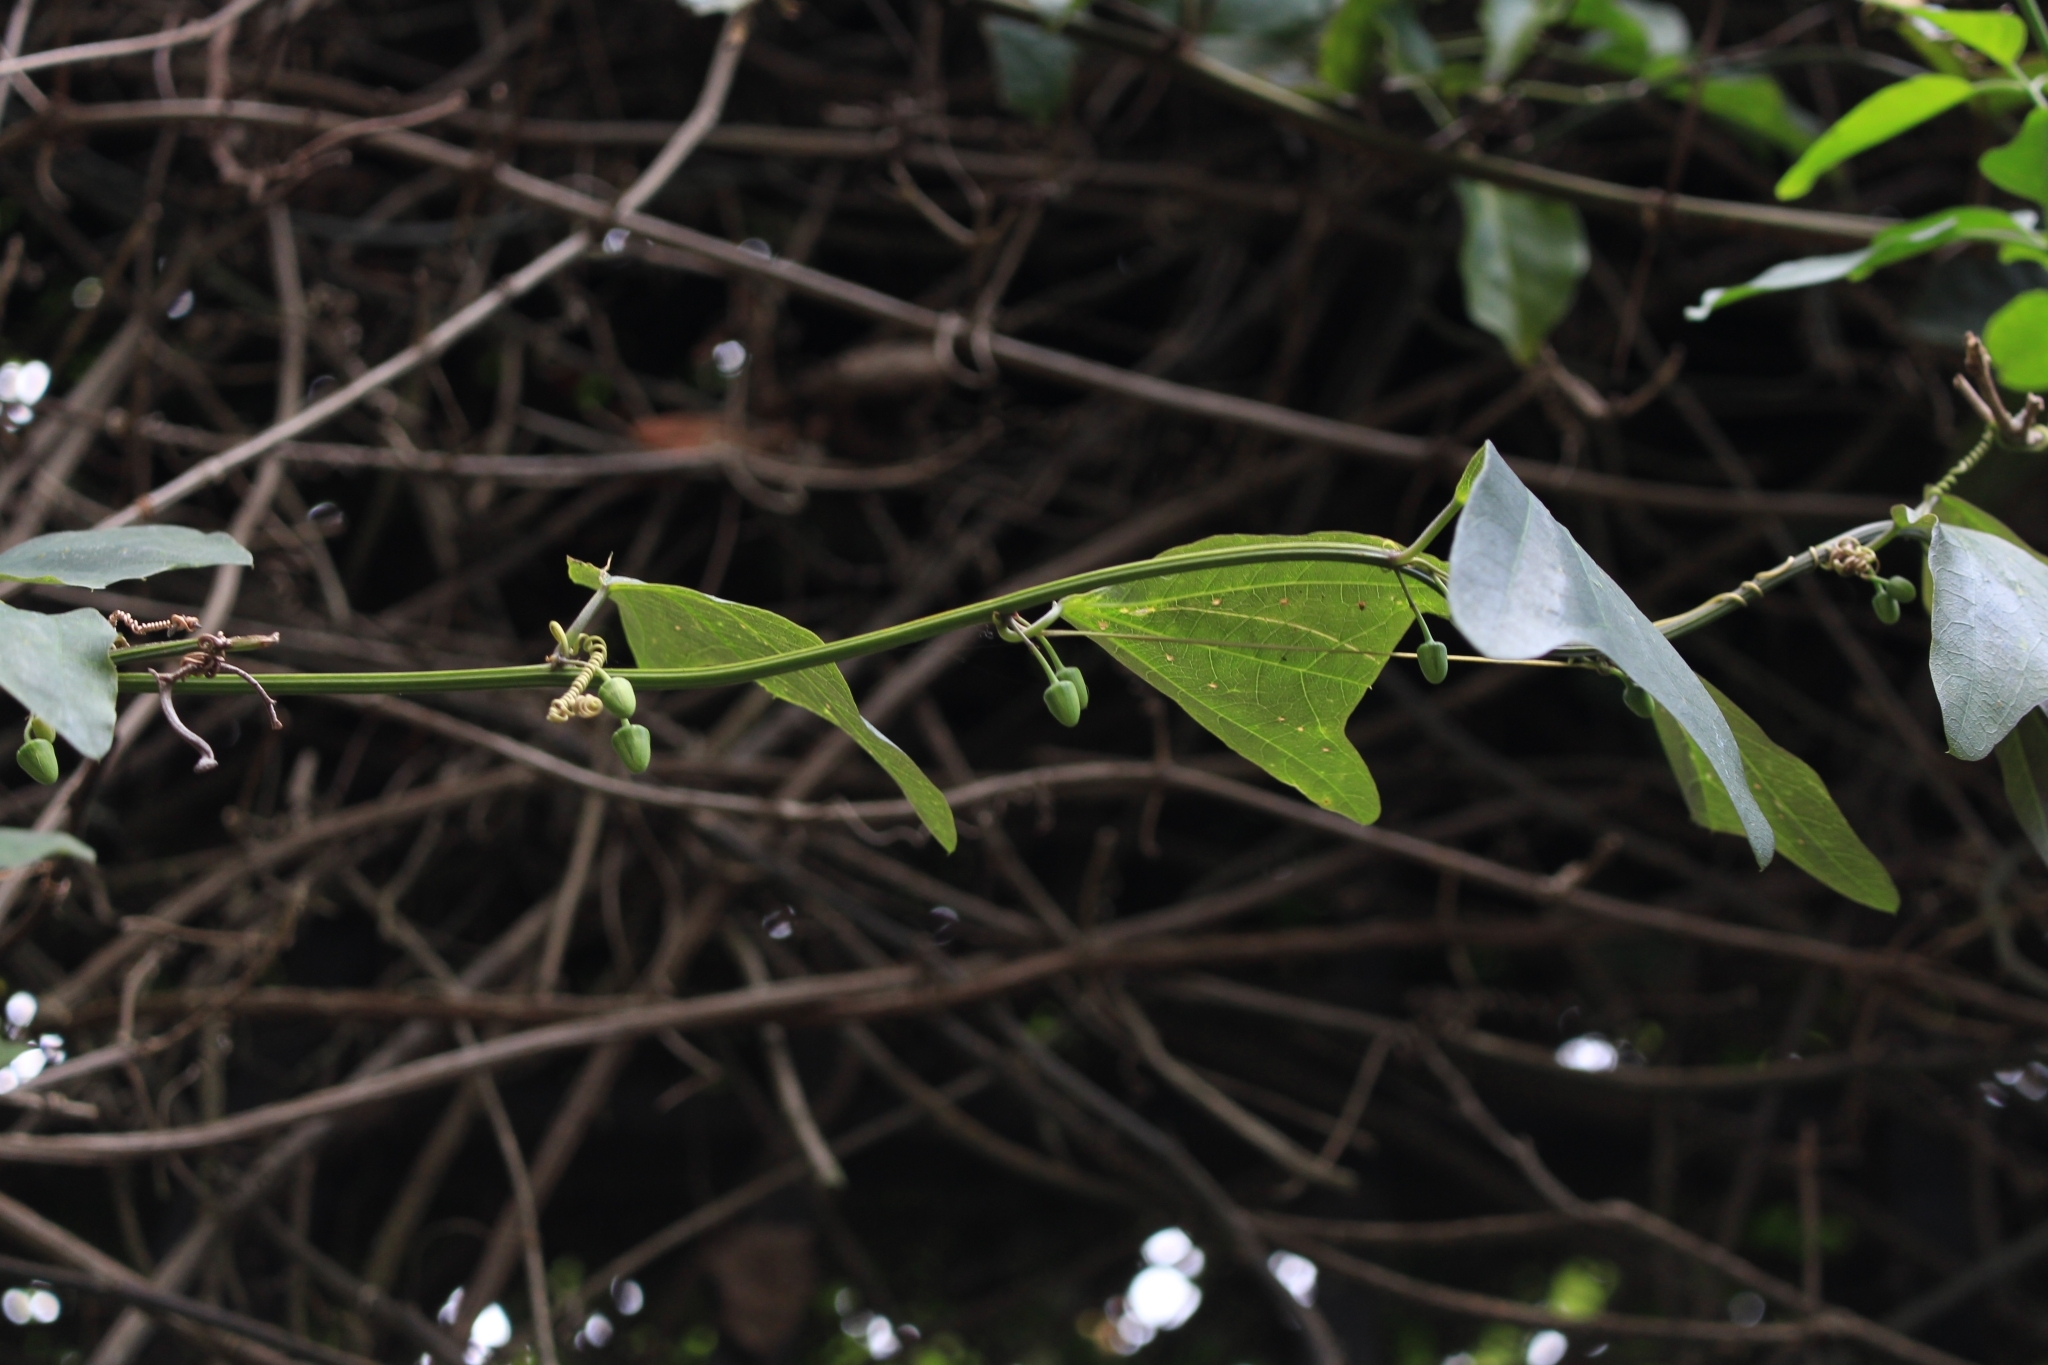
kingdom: Plantae
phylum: Tracheophyta
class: Magnoliopsida
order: Malpighiales
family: Passifloraceae
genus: Passiflora
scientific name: Passiflora biflora
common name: Twoflower passionflower
